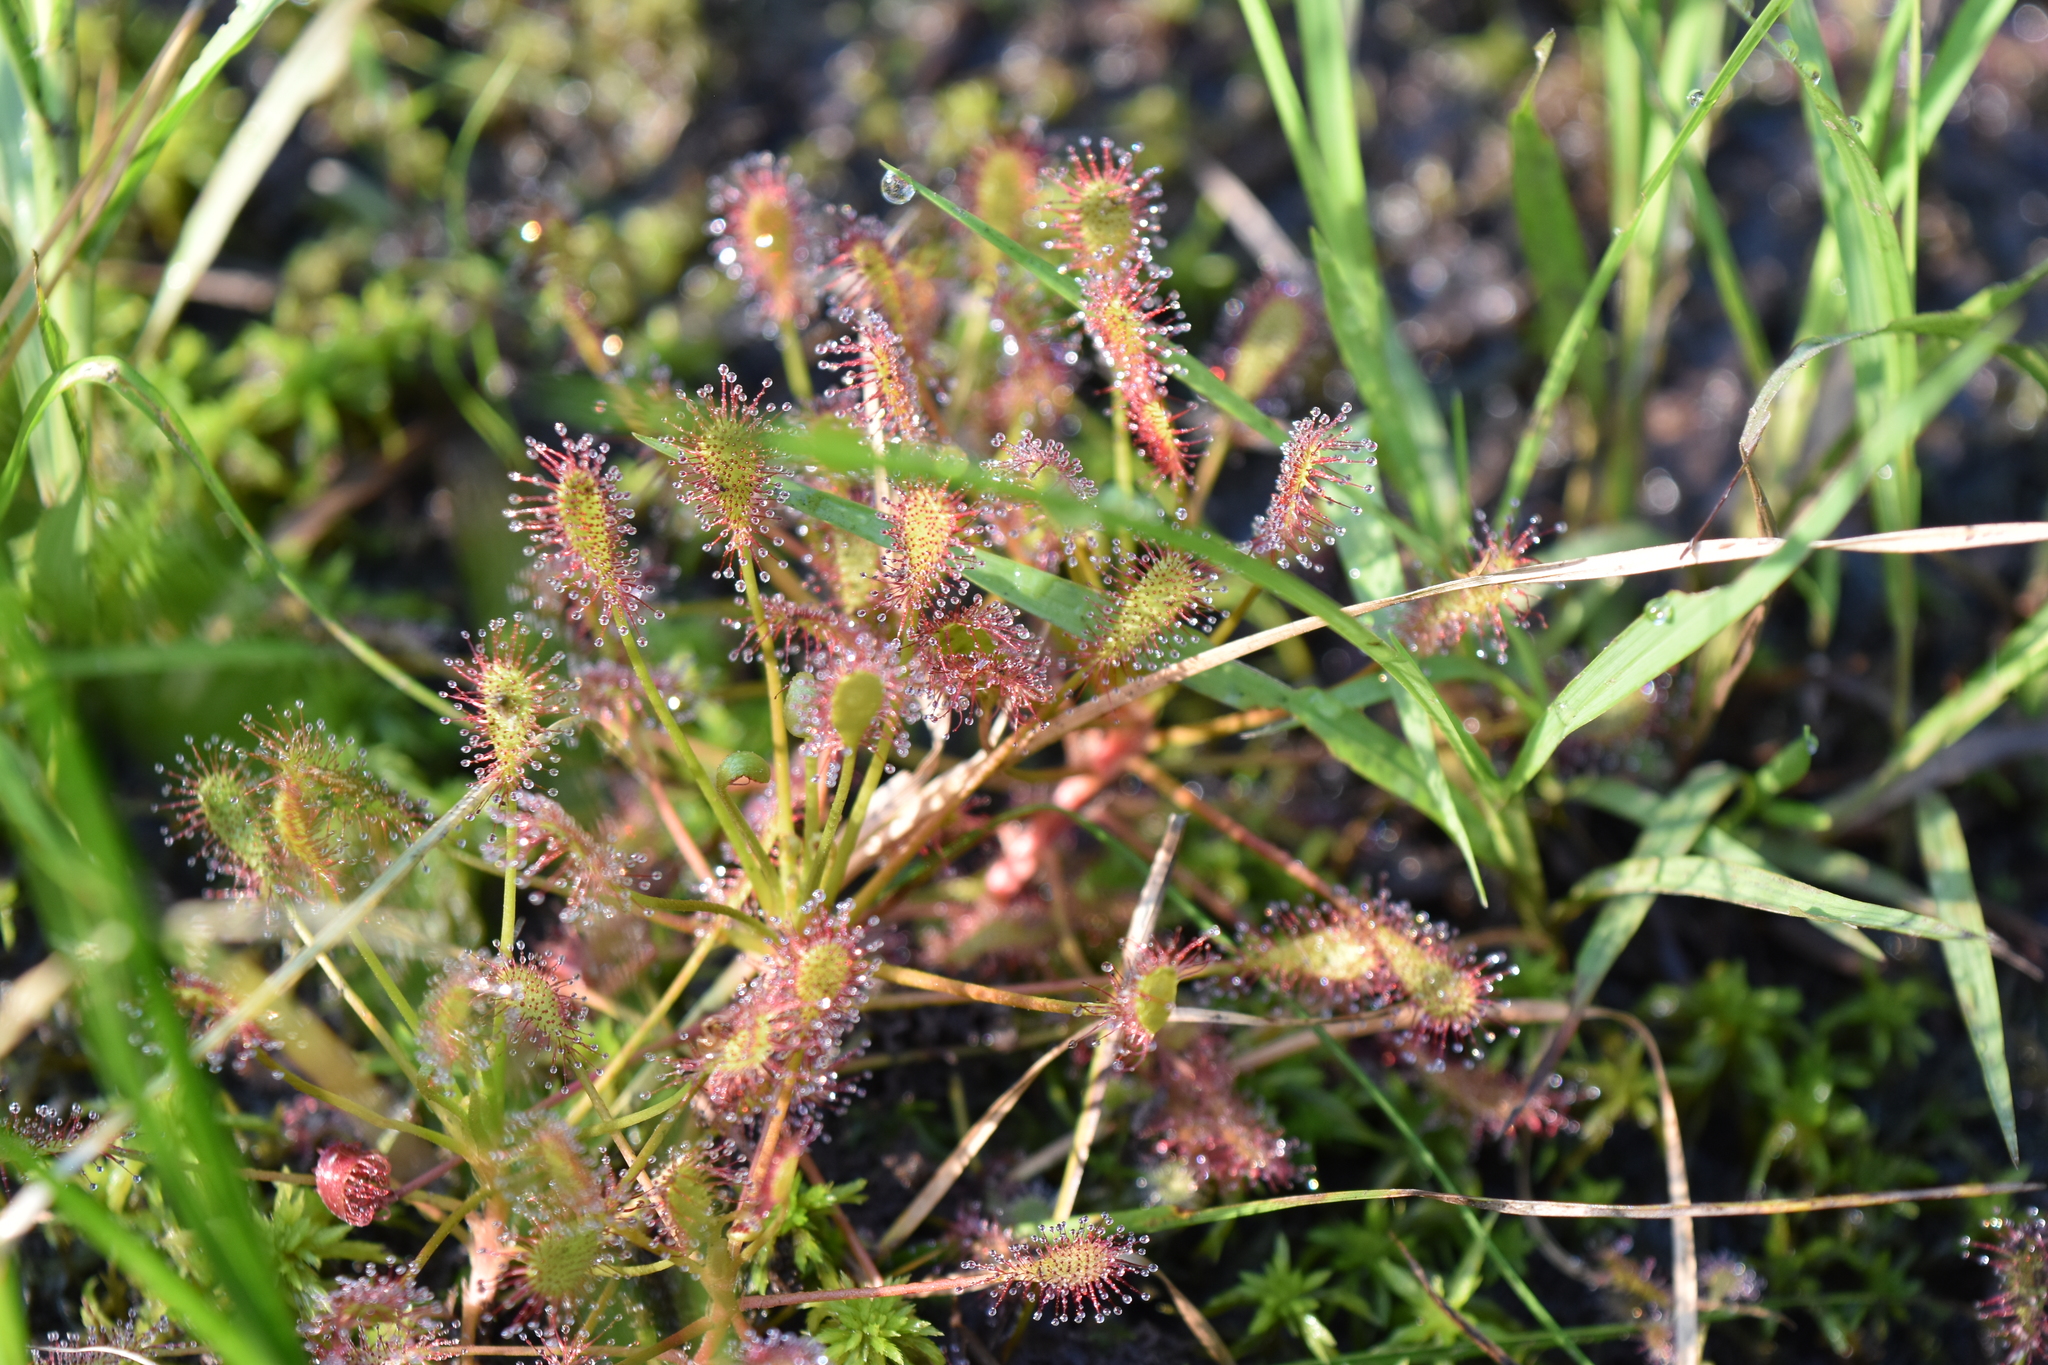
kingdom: Plantae
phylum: Tracheophyta
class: Magnoliopsida
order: Caryophyllales
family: Droseraceae
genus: Drosera
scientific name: Drosera intermedia
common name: Oblong-leaved sundew
